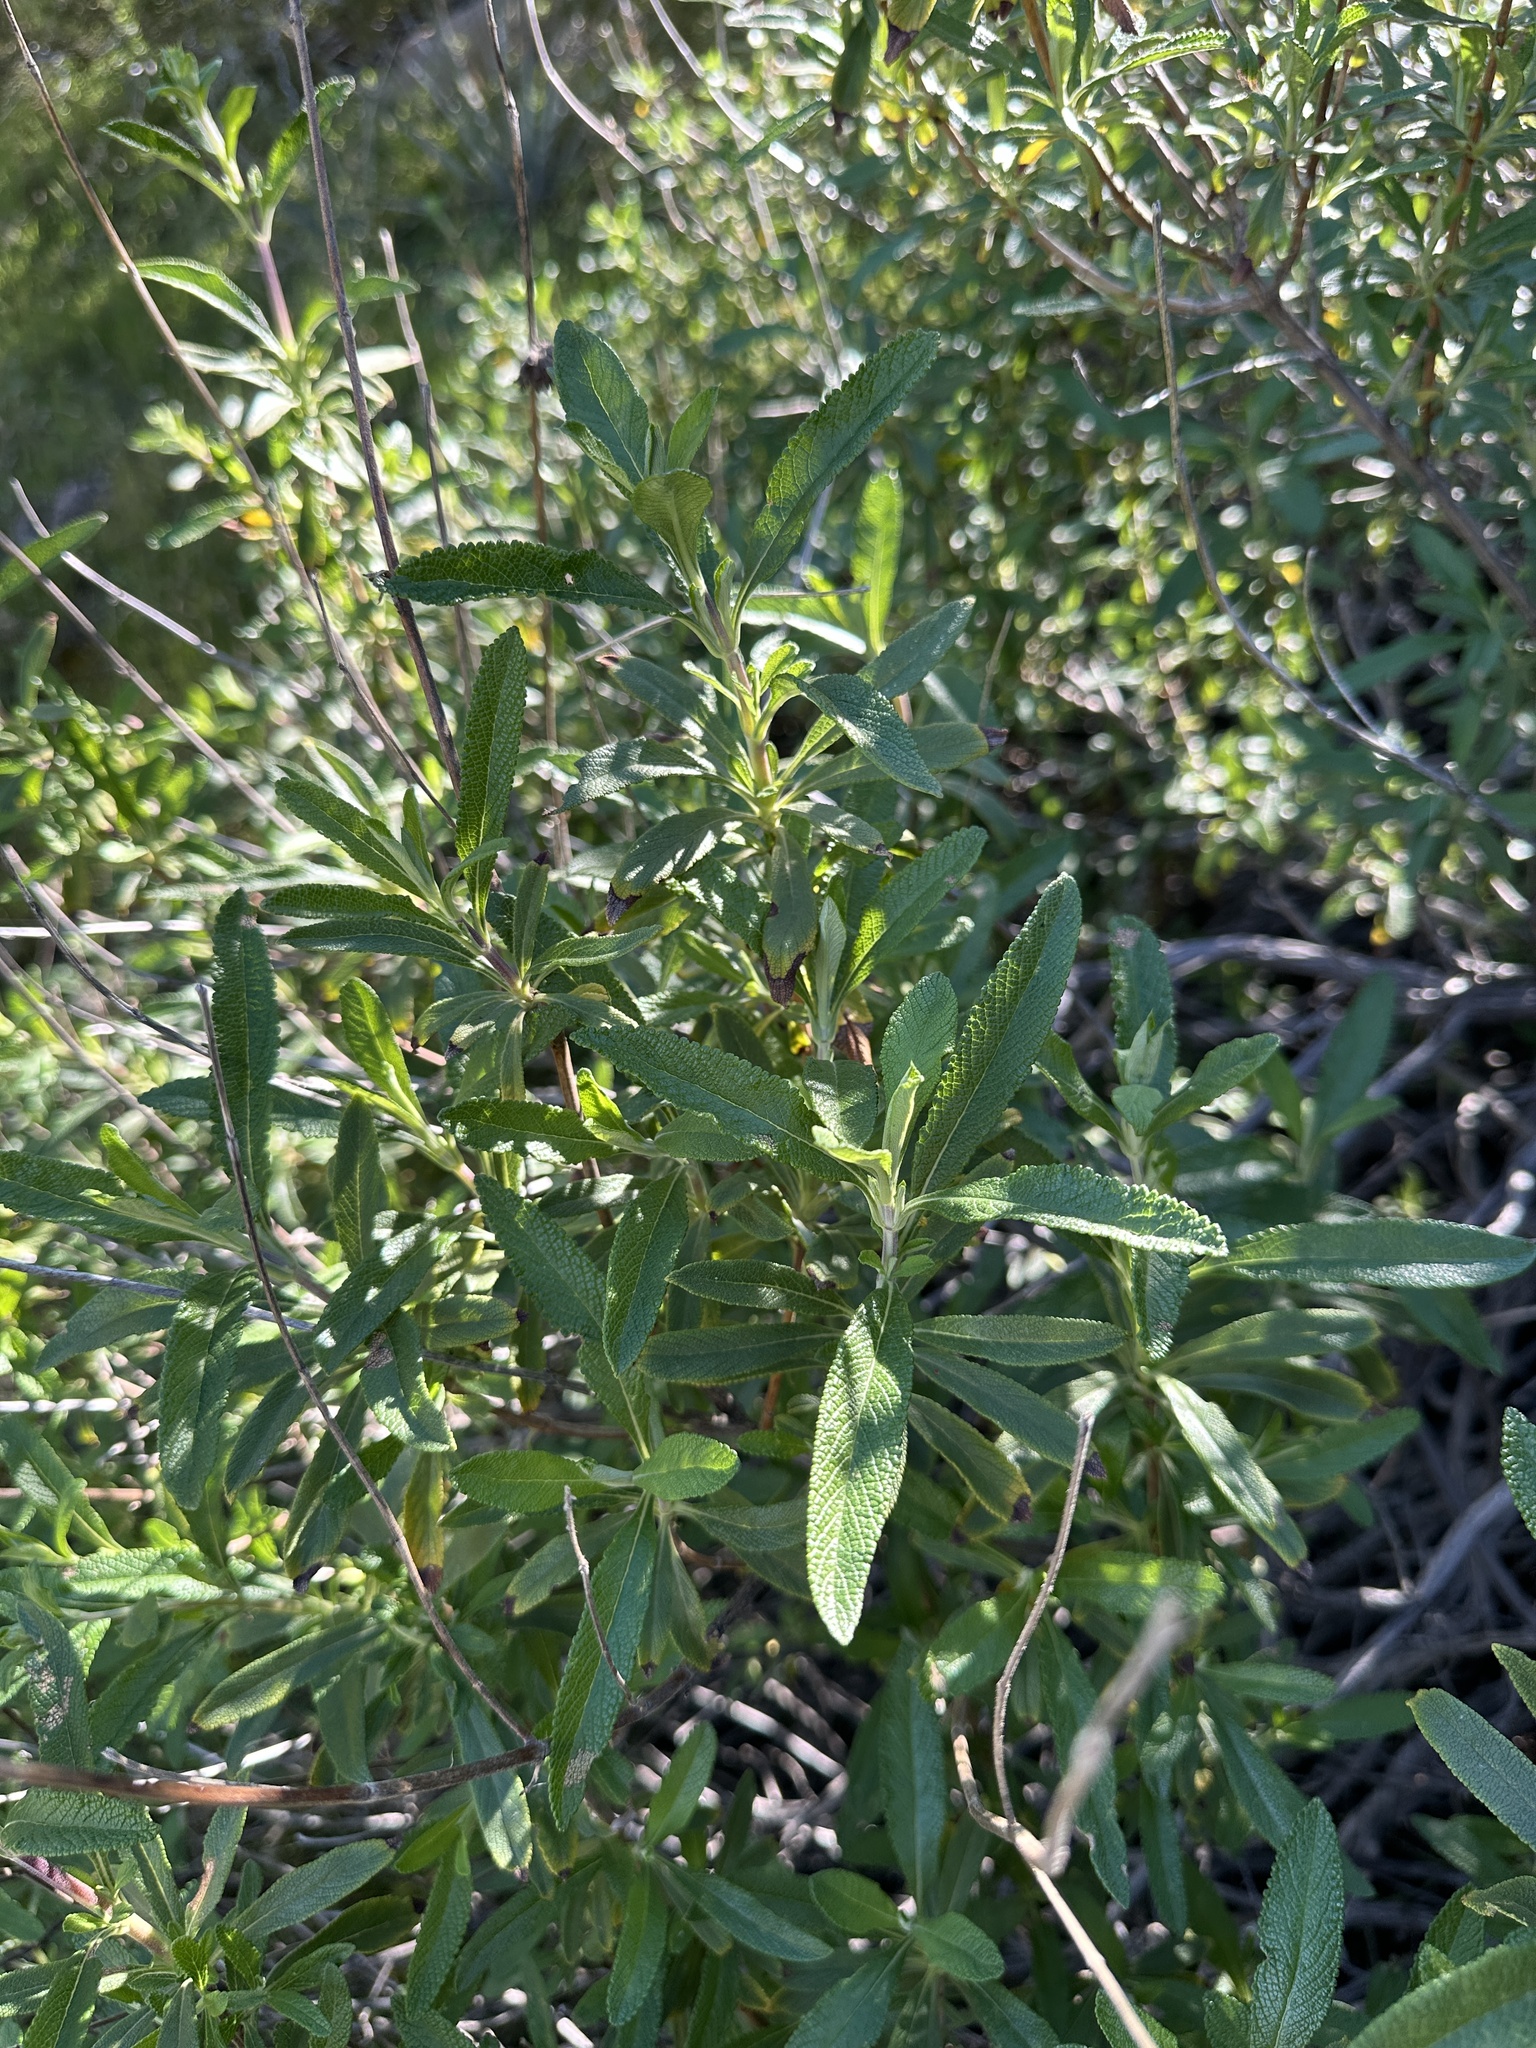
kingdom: Plantae
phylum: Tracheophyta
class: Magnoliopsida
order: Lamiales
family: Lamiaceae
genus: Salvia
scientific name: Salvia mellifera
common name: Black sage
